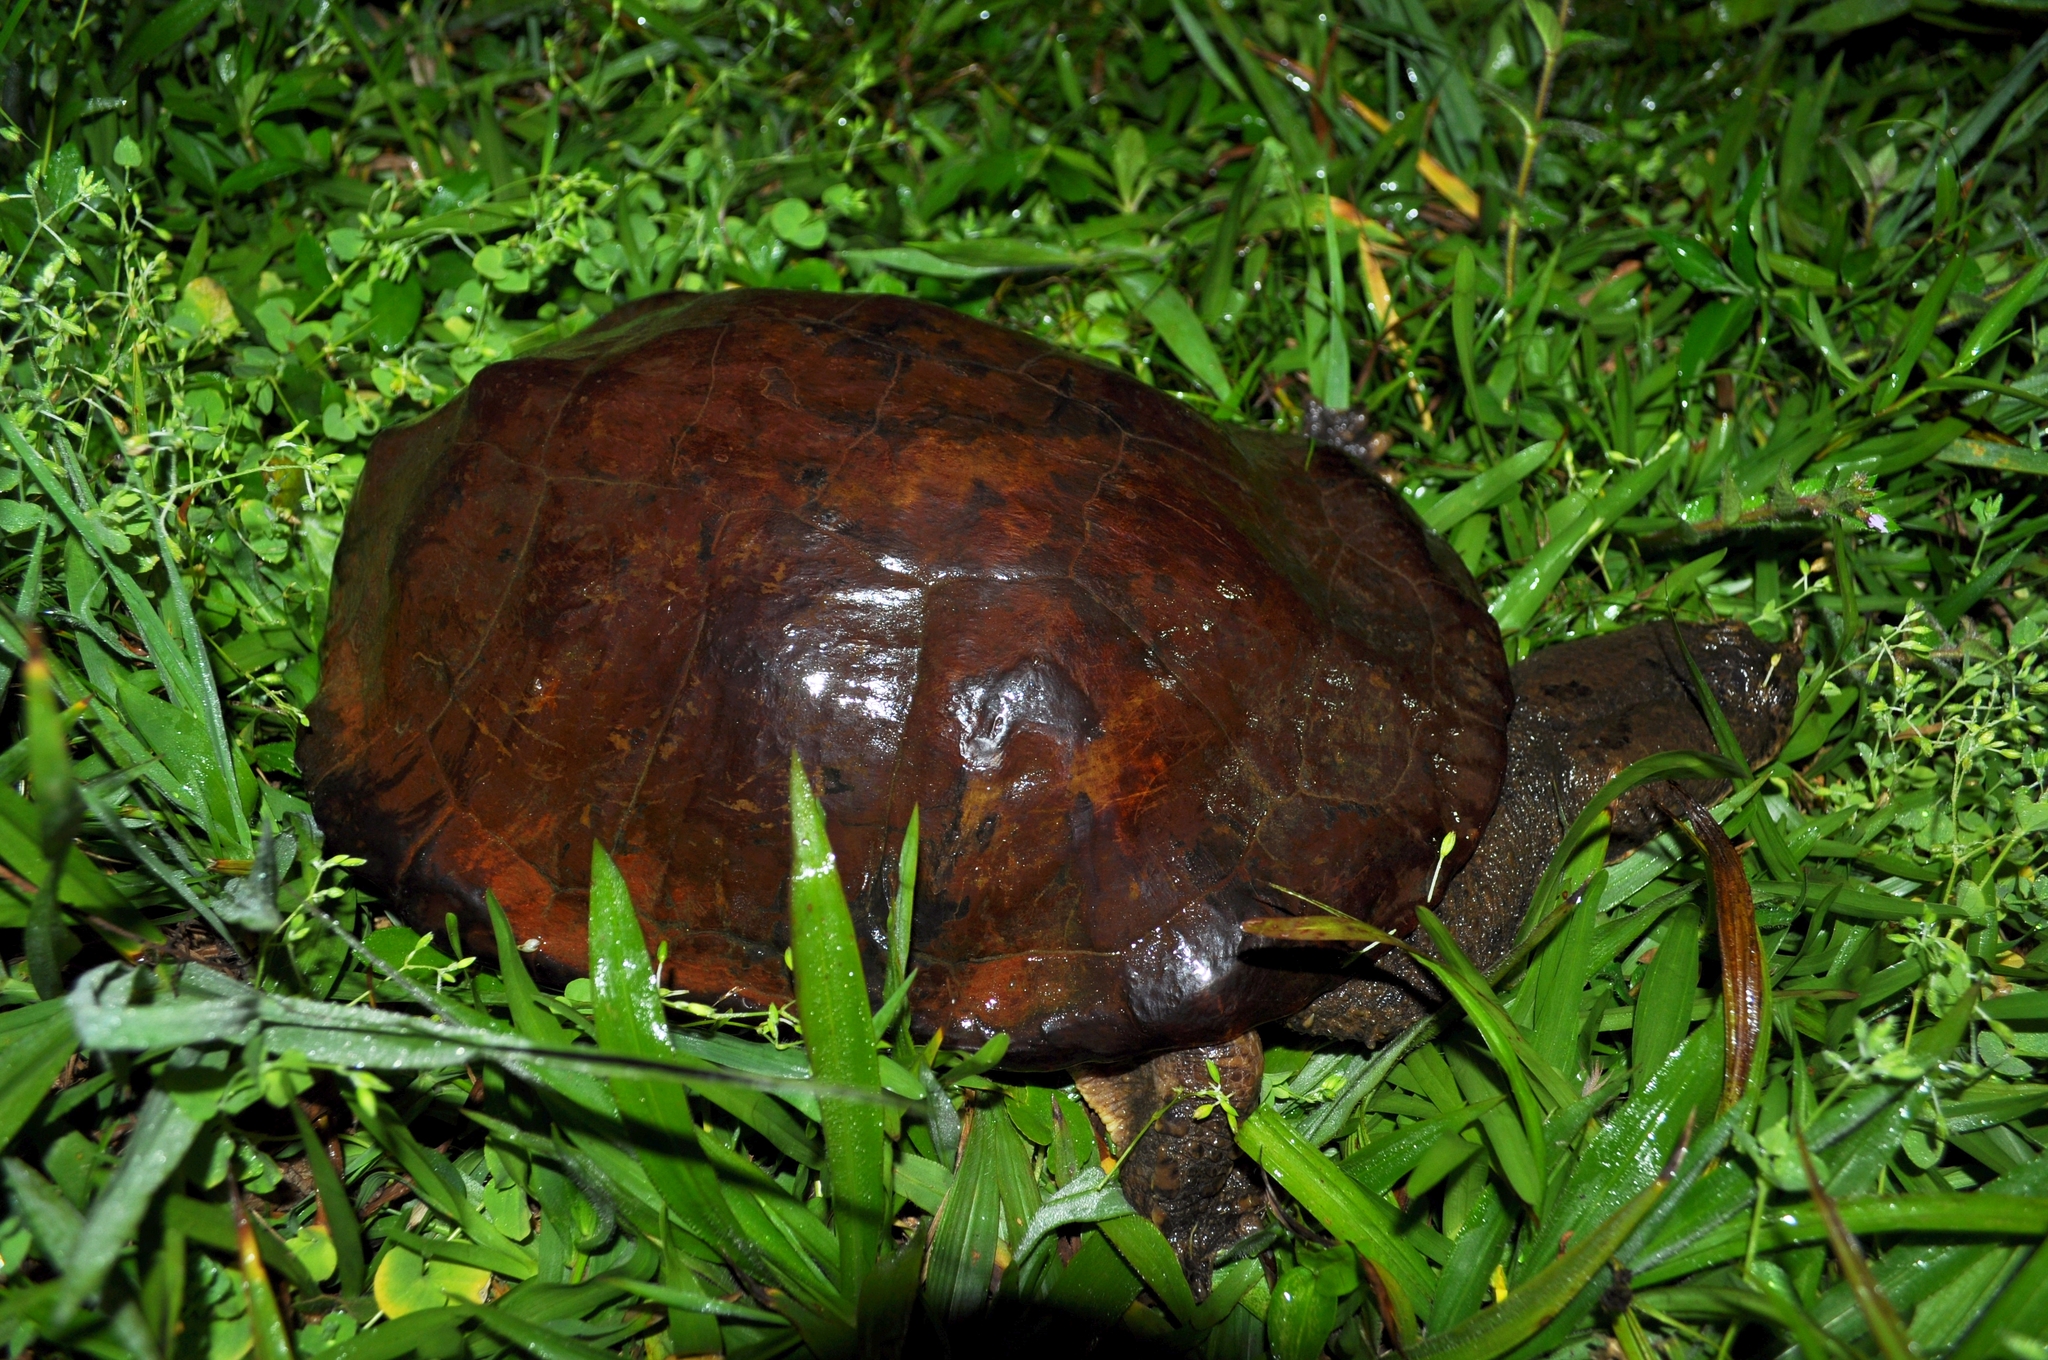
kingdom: Animalia
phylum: Chordata
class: Testudines
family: Chelidae
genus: Hydromedusa
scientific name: Hydromedusa tectifera
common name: Argentine snake-necked turtle
